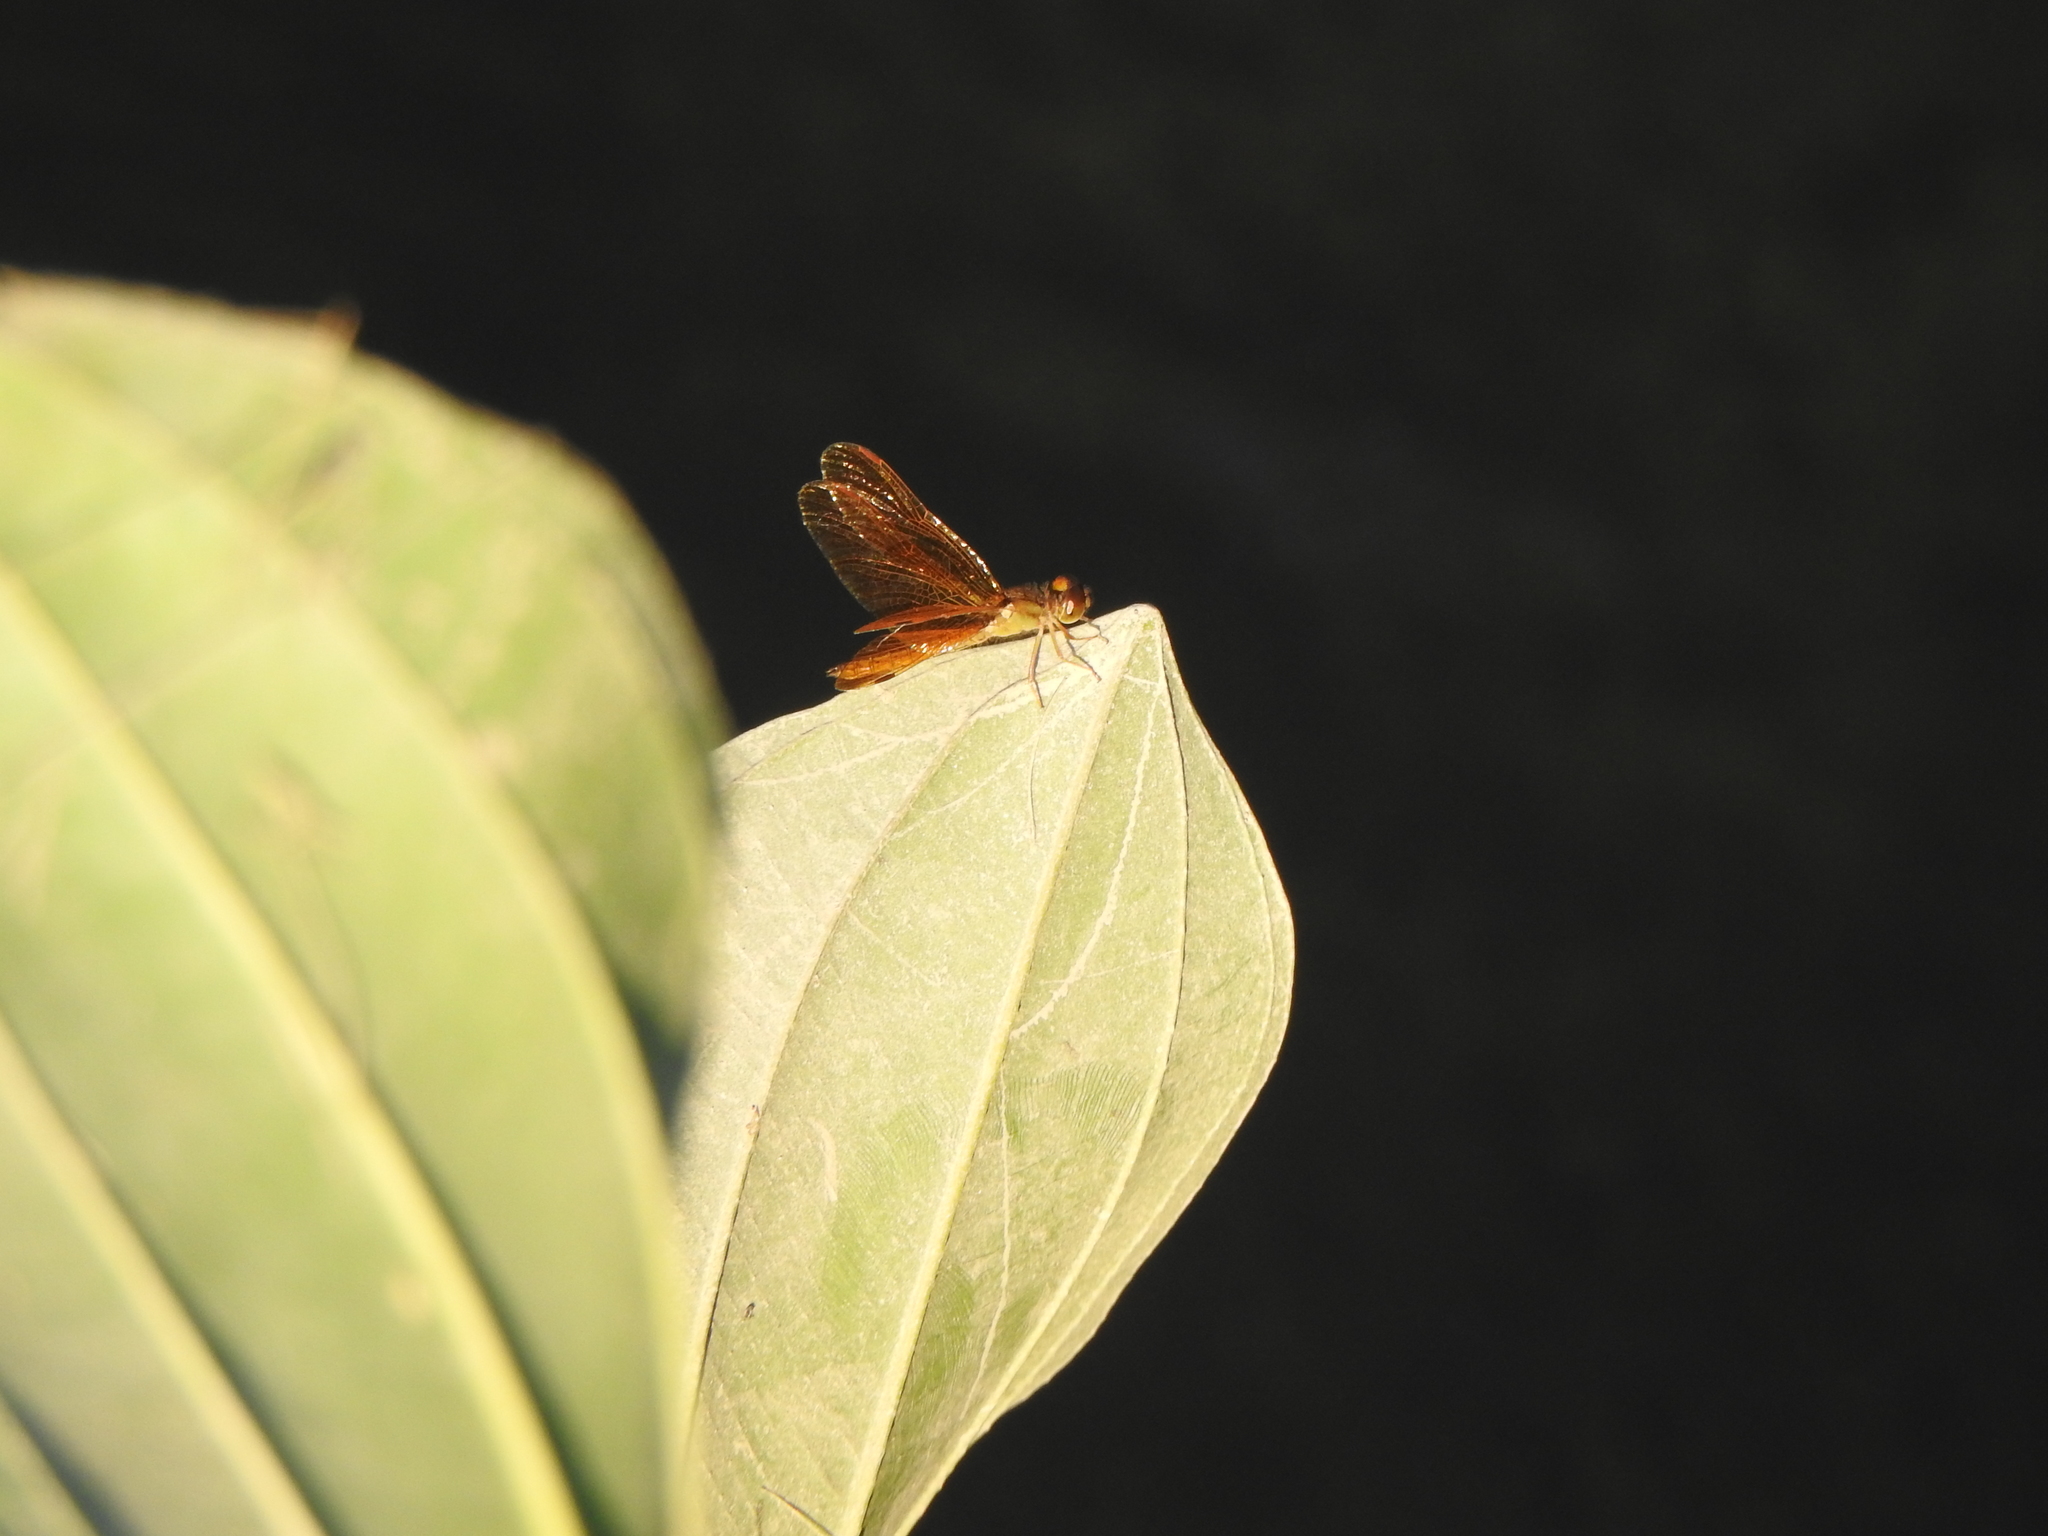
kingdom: Animalia
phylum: Arthropoda
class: Insecta
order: Odonata
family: Libellulidae
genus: Perithemis
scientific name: Perithemis tenera
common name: Eastern amberwing
